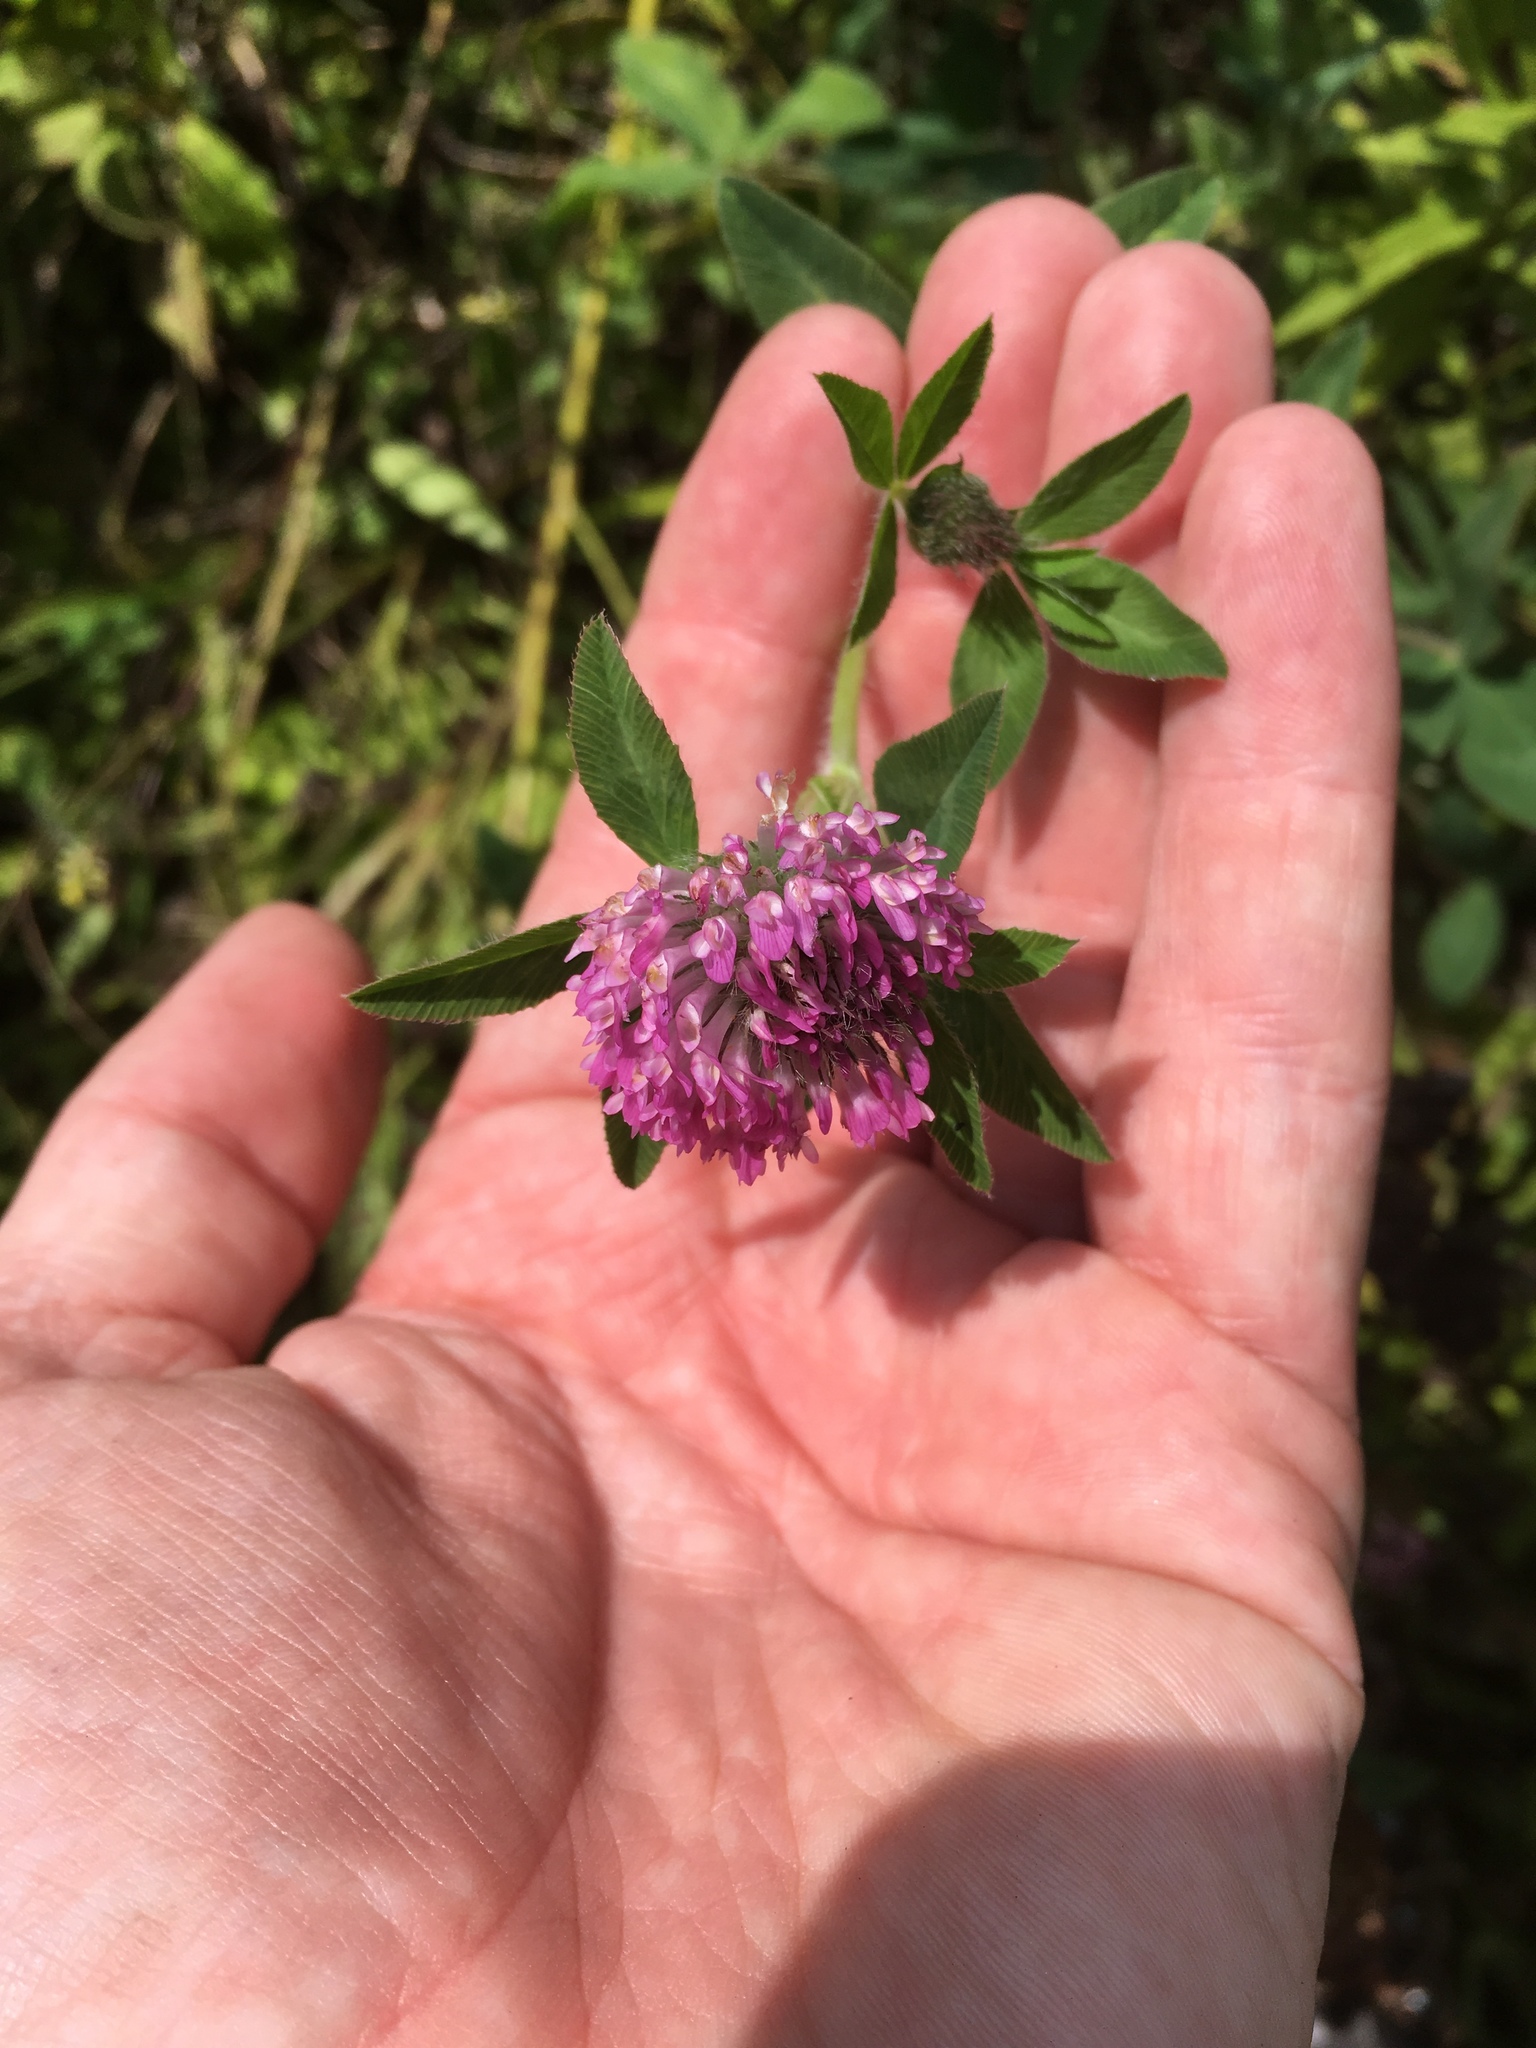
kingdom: Plantae
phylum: Tracheophyta
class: Magnoliopsida
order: Fabales
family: Fabaceae
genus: Trifolium
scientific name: Trifolium pratense
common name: Red clover
